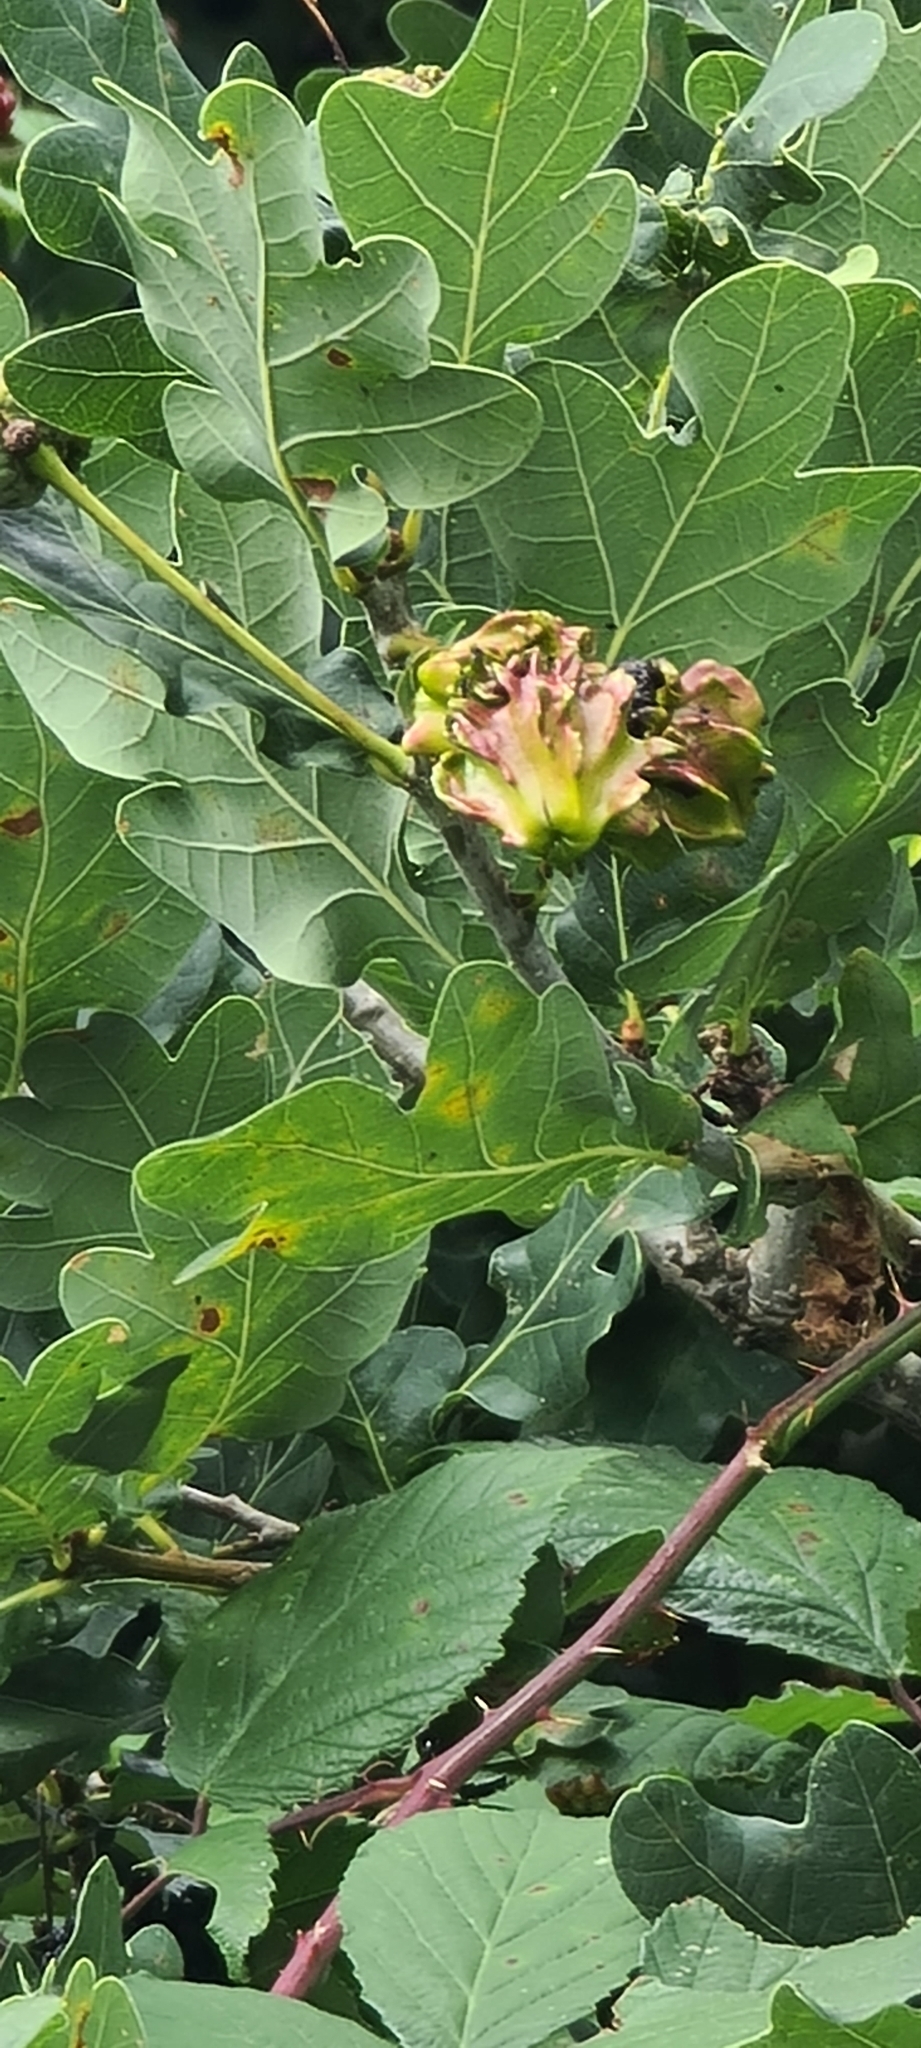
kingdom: Animalia
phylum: Arthropoda
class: Insecta
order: Hymenoptera
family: Cynipidae
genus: Andricus
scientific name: Andricus quercuscalicis
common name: Knopper gall
